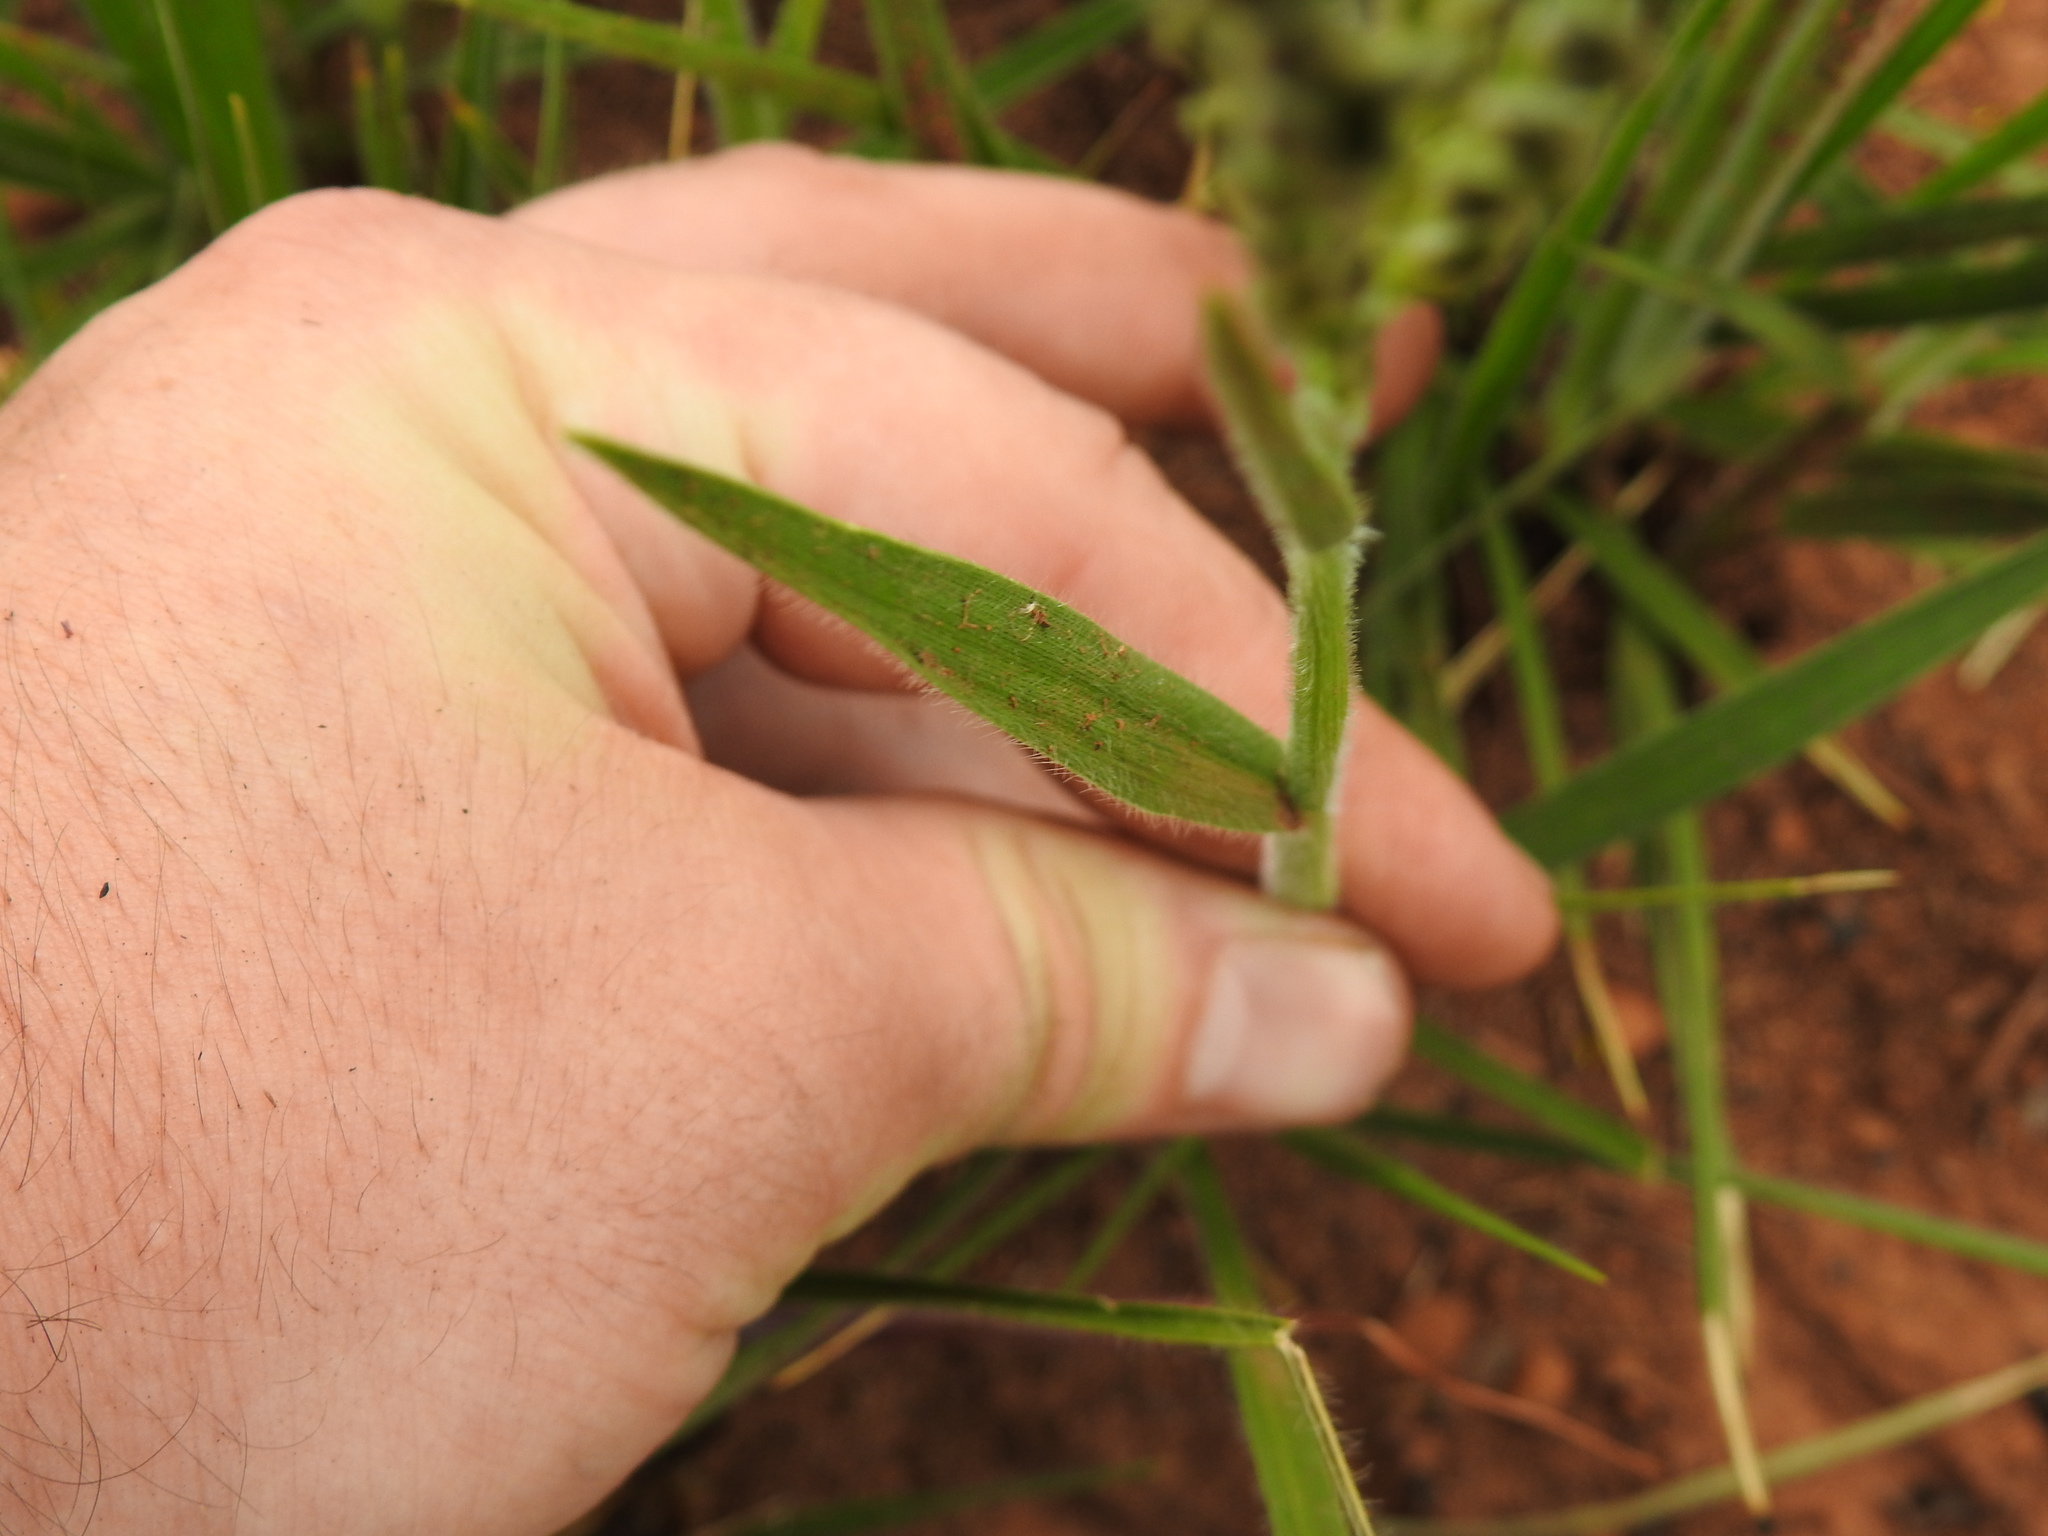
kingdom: Plantae
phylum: Tracheophyta
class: Liliopsida
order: Poales
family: Poaceae
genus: Alloteropsis
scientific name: Alloteropsis semialata
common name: Cockatoo grass
